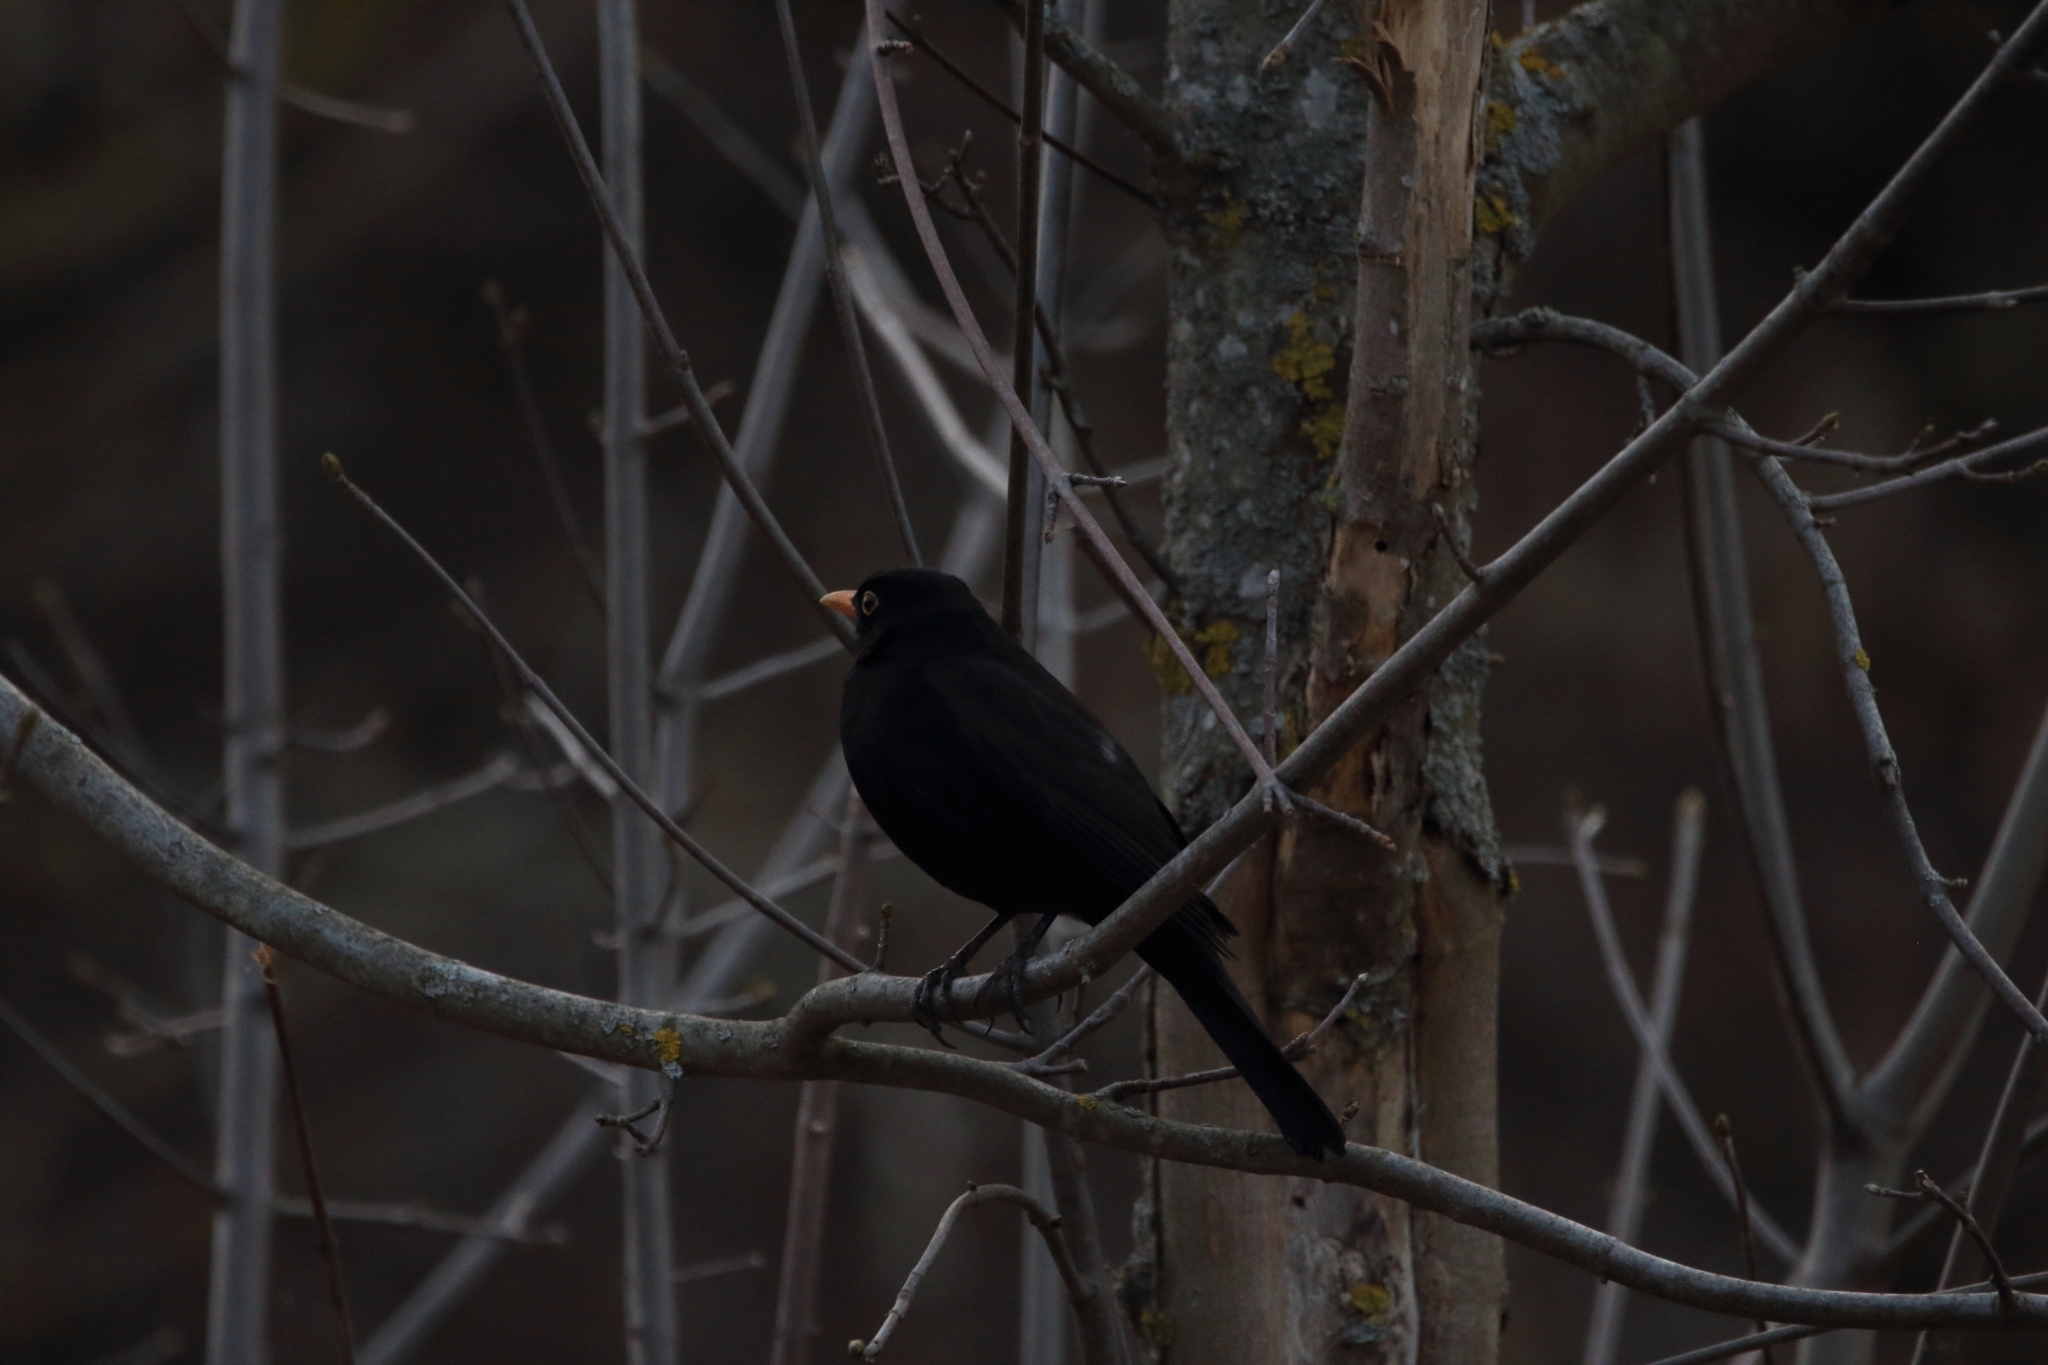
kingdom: Animalia
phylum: Chordata
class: Aves
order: Passeriformes
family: Turdidae
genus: Turdus
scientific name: Turdus merula
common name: Common blackbird
